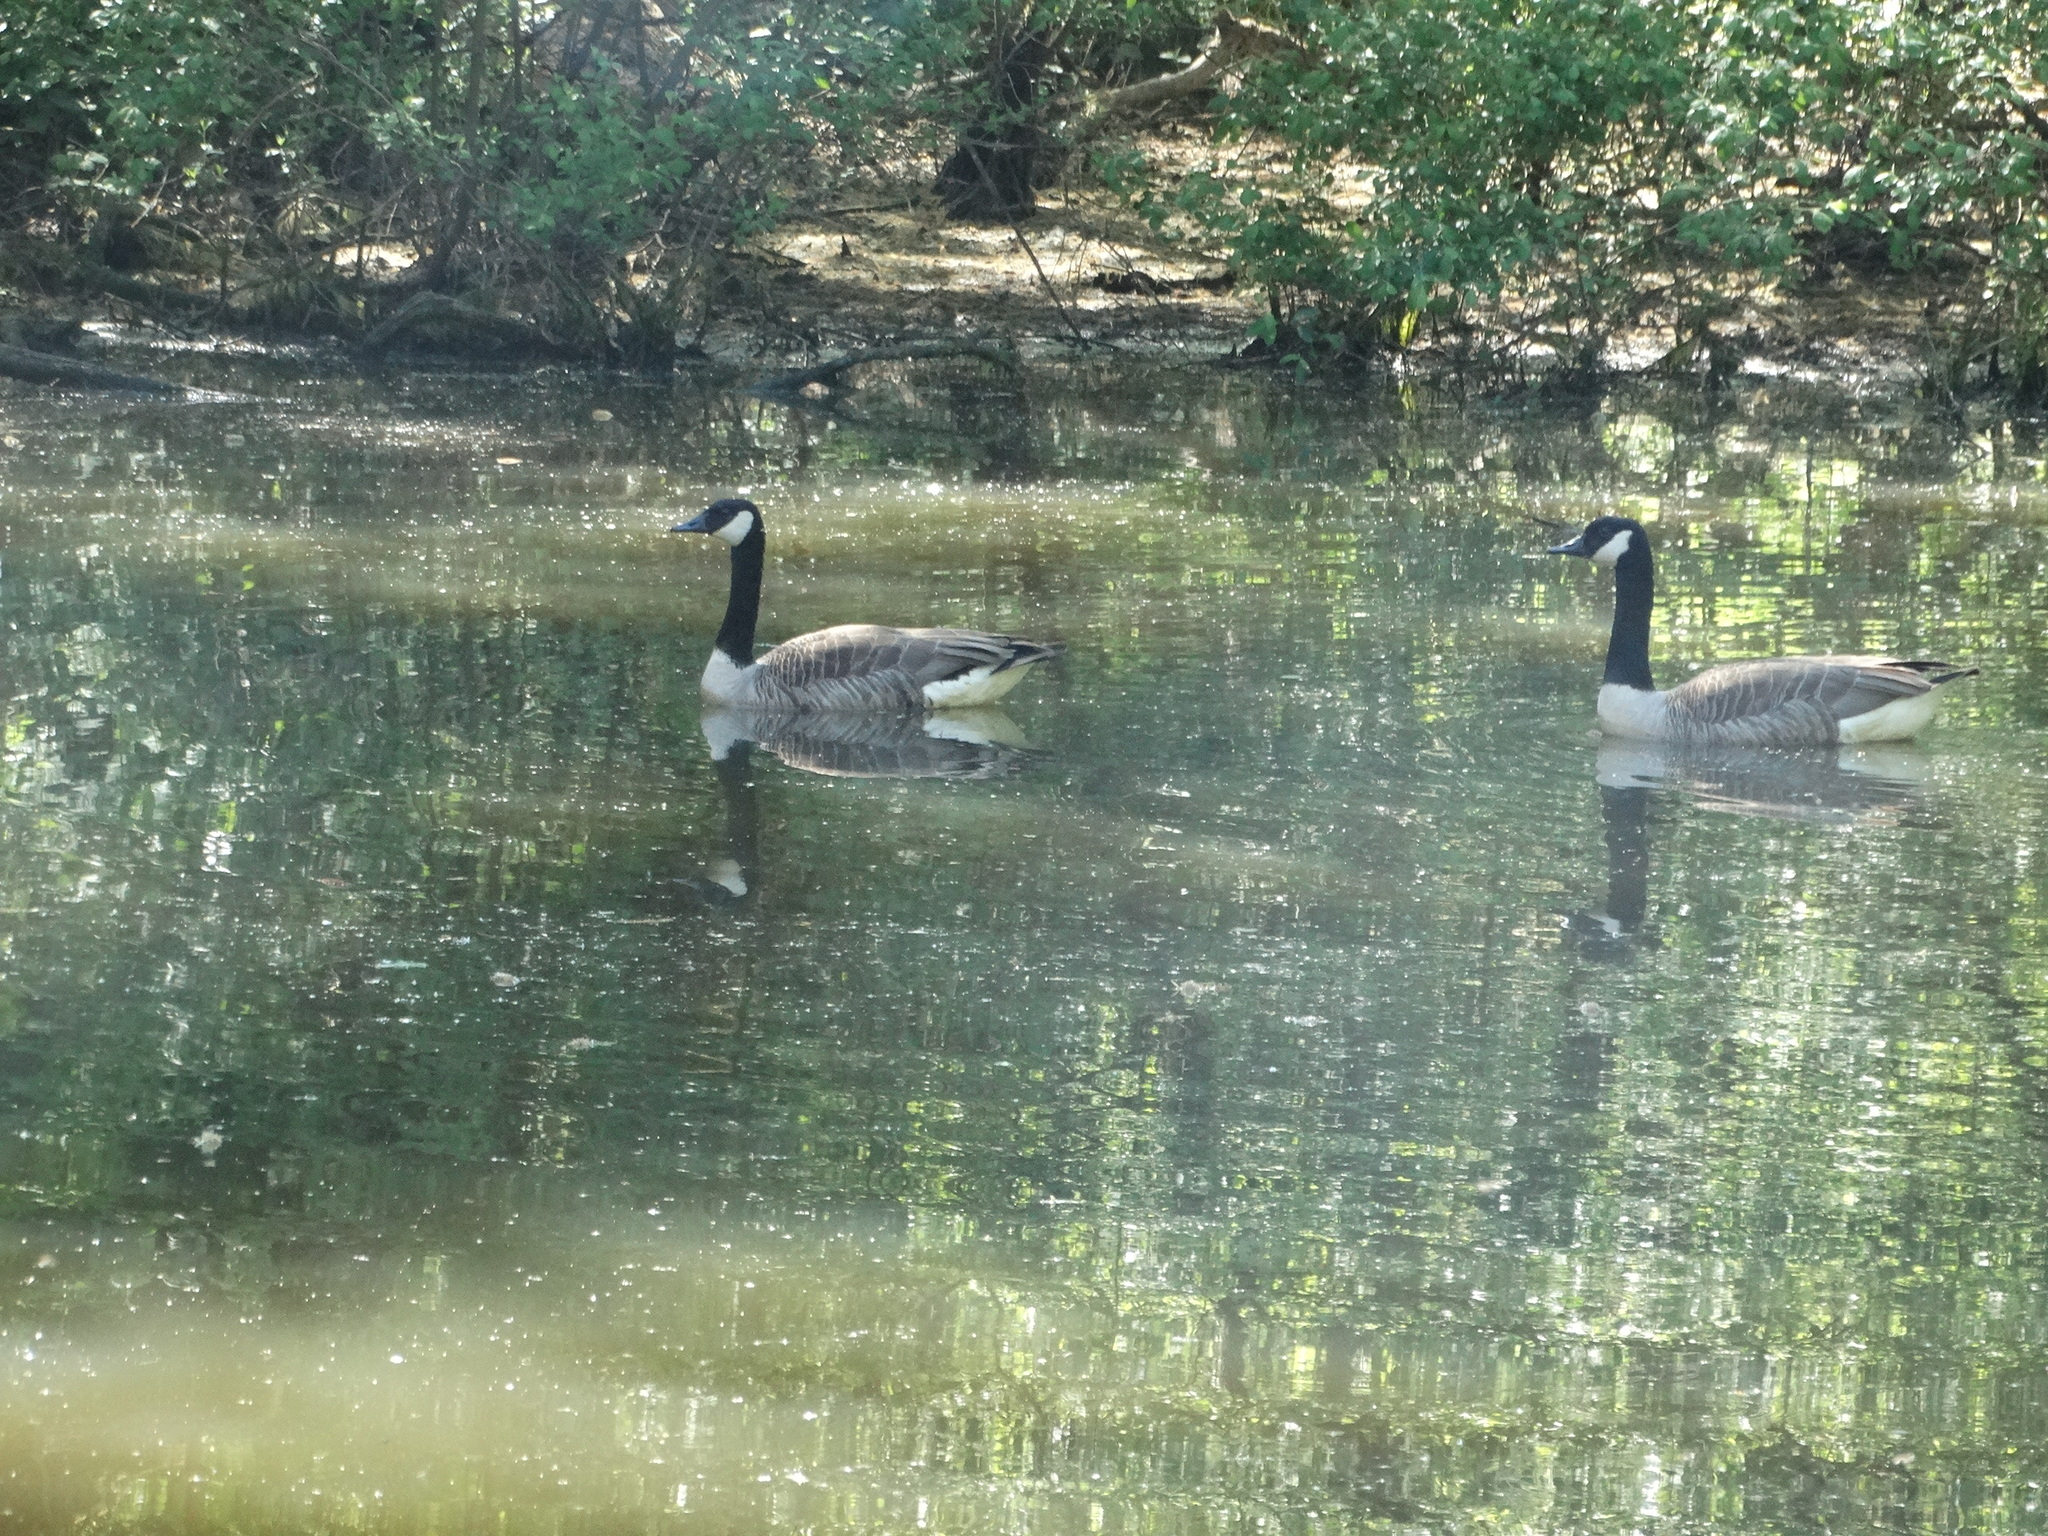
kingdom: Animalia
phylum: Chordata
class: Aves
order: Anseriformes
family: Anatidae
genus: Branta
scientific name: Branta canadensis
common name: Canada goose
